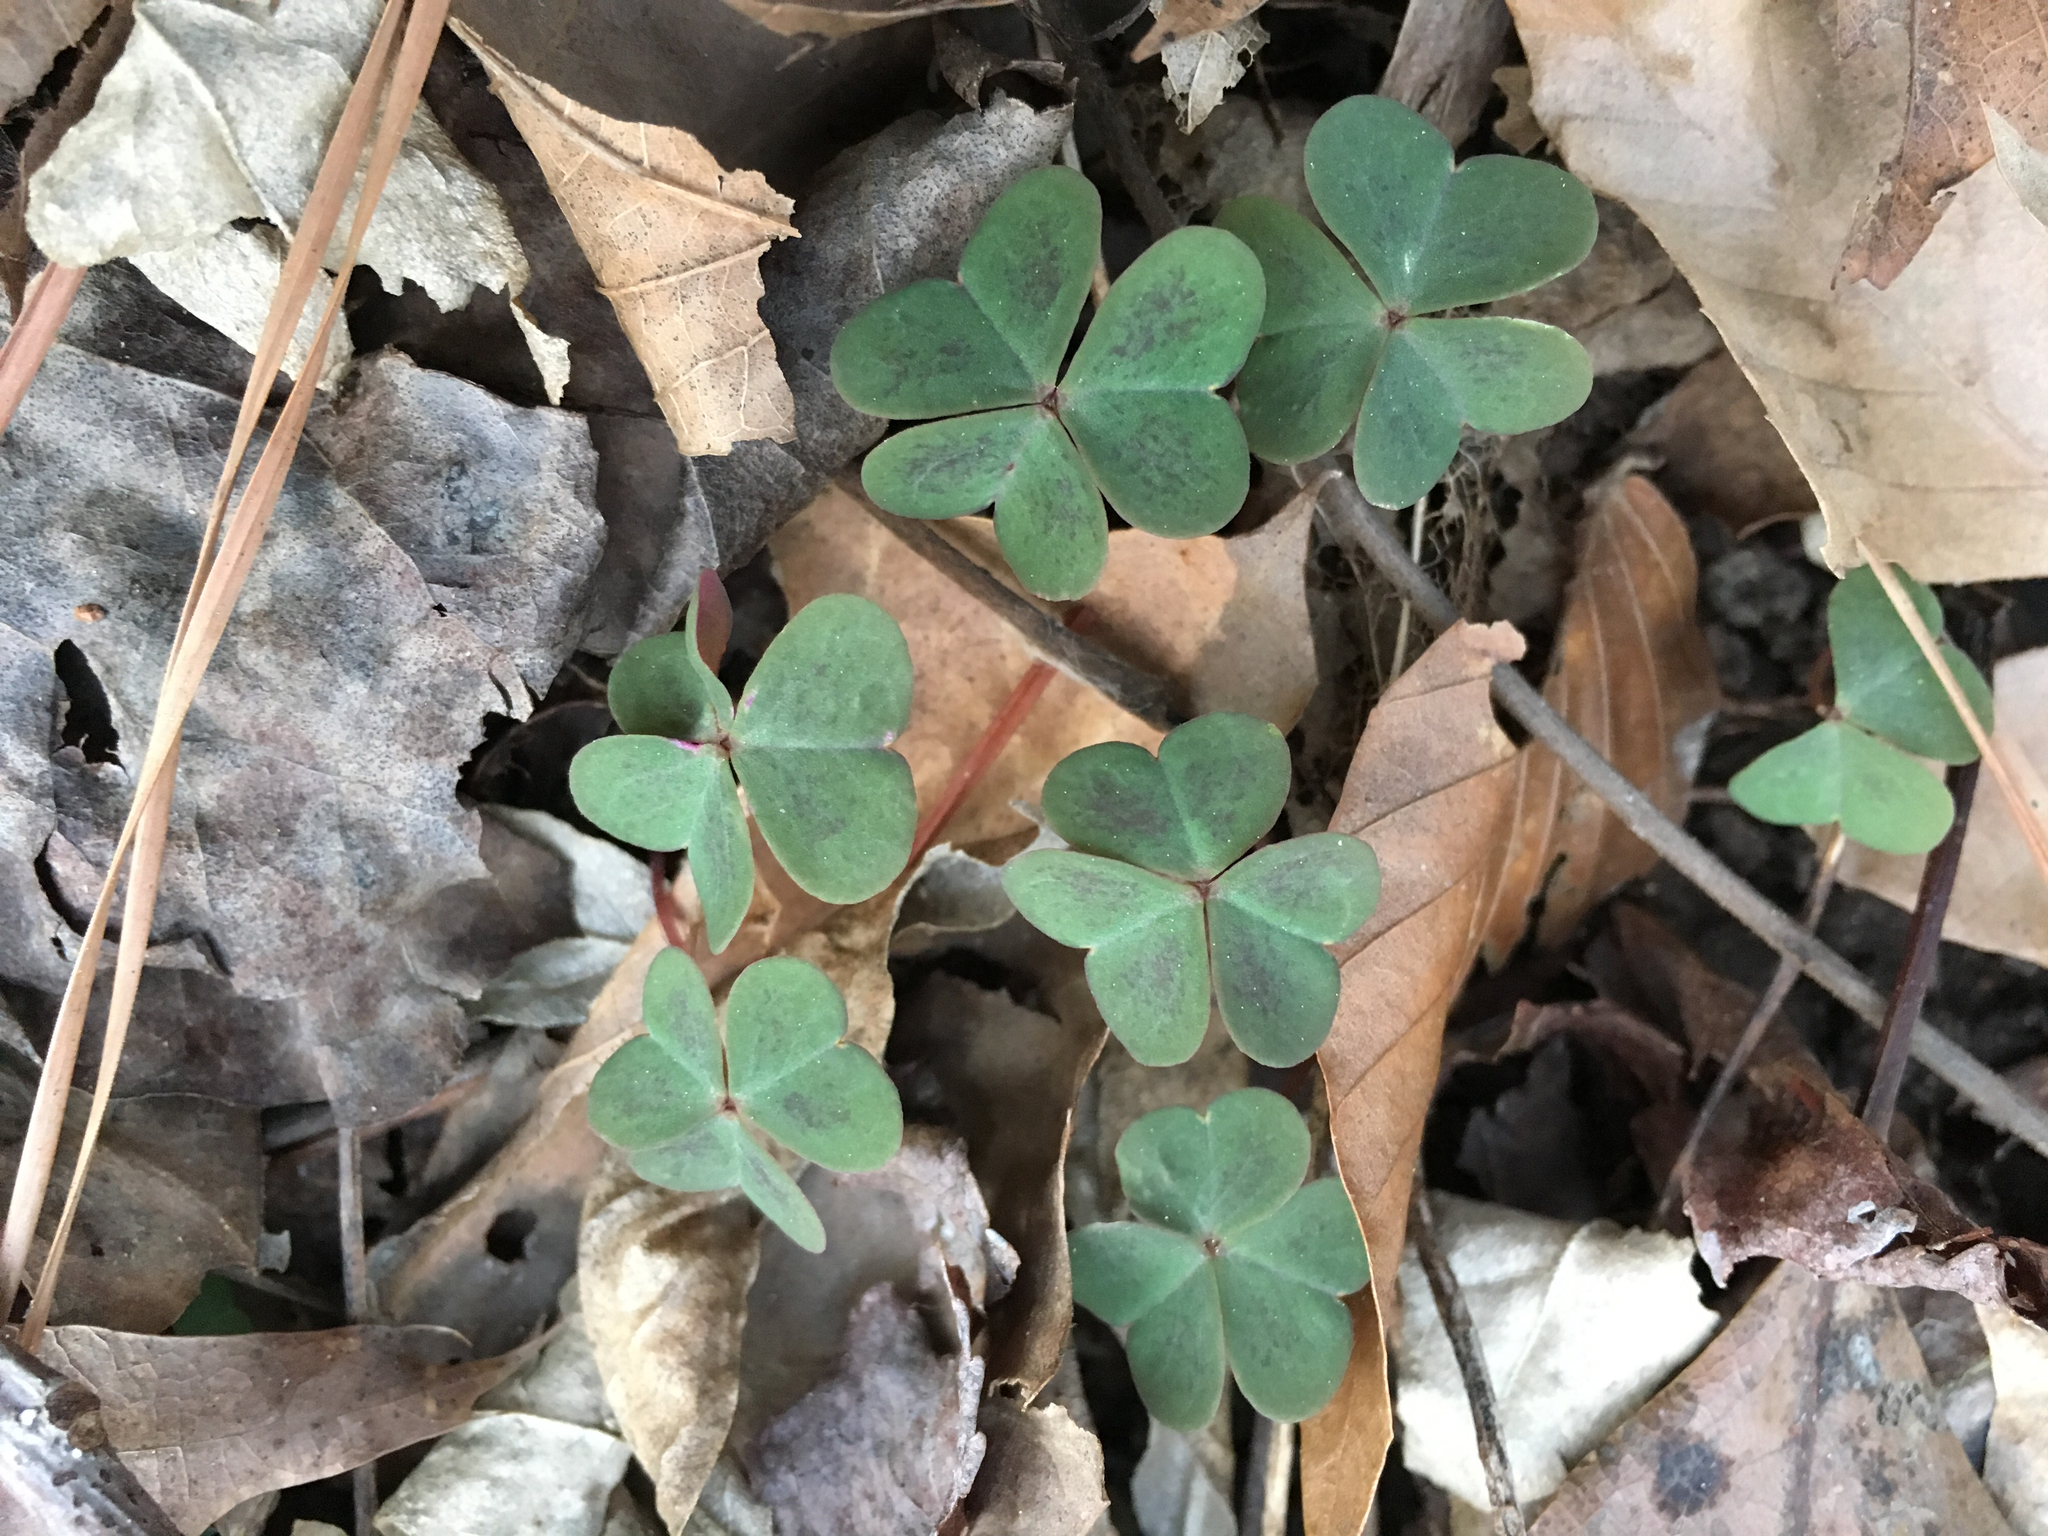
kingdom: Plantae
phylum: Tracheophyta
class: Magnoliopsida
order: Oxalidales
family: Oxalidaceae
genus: Oxalis
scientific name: Oxalis violacea
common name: Violet wood-sorrel
